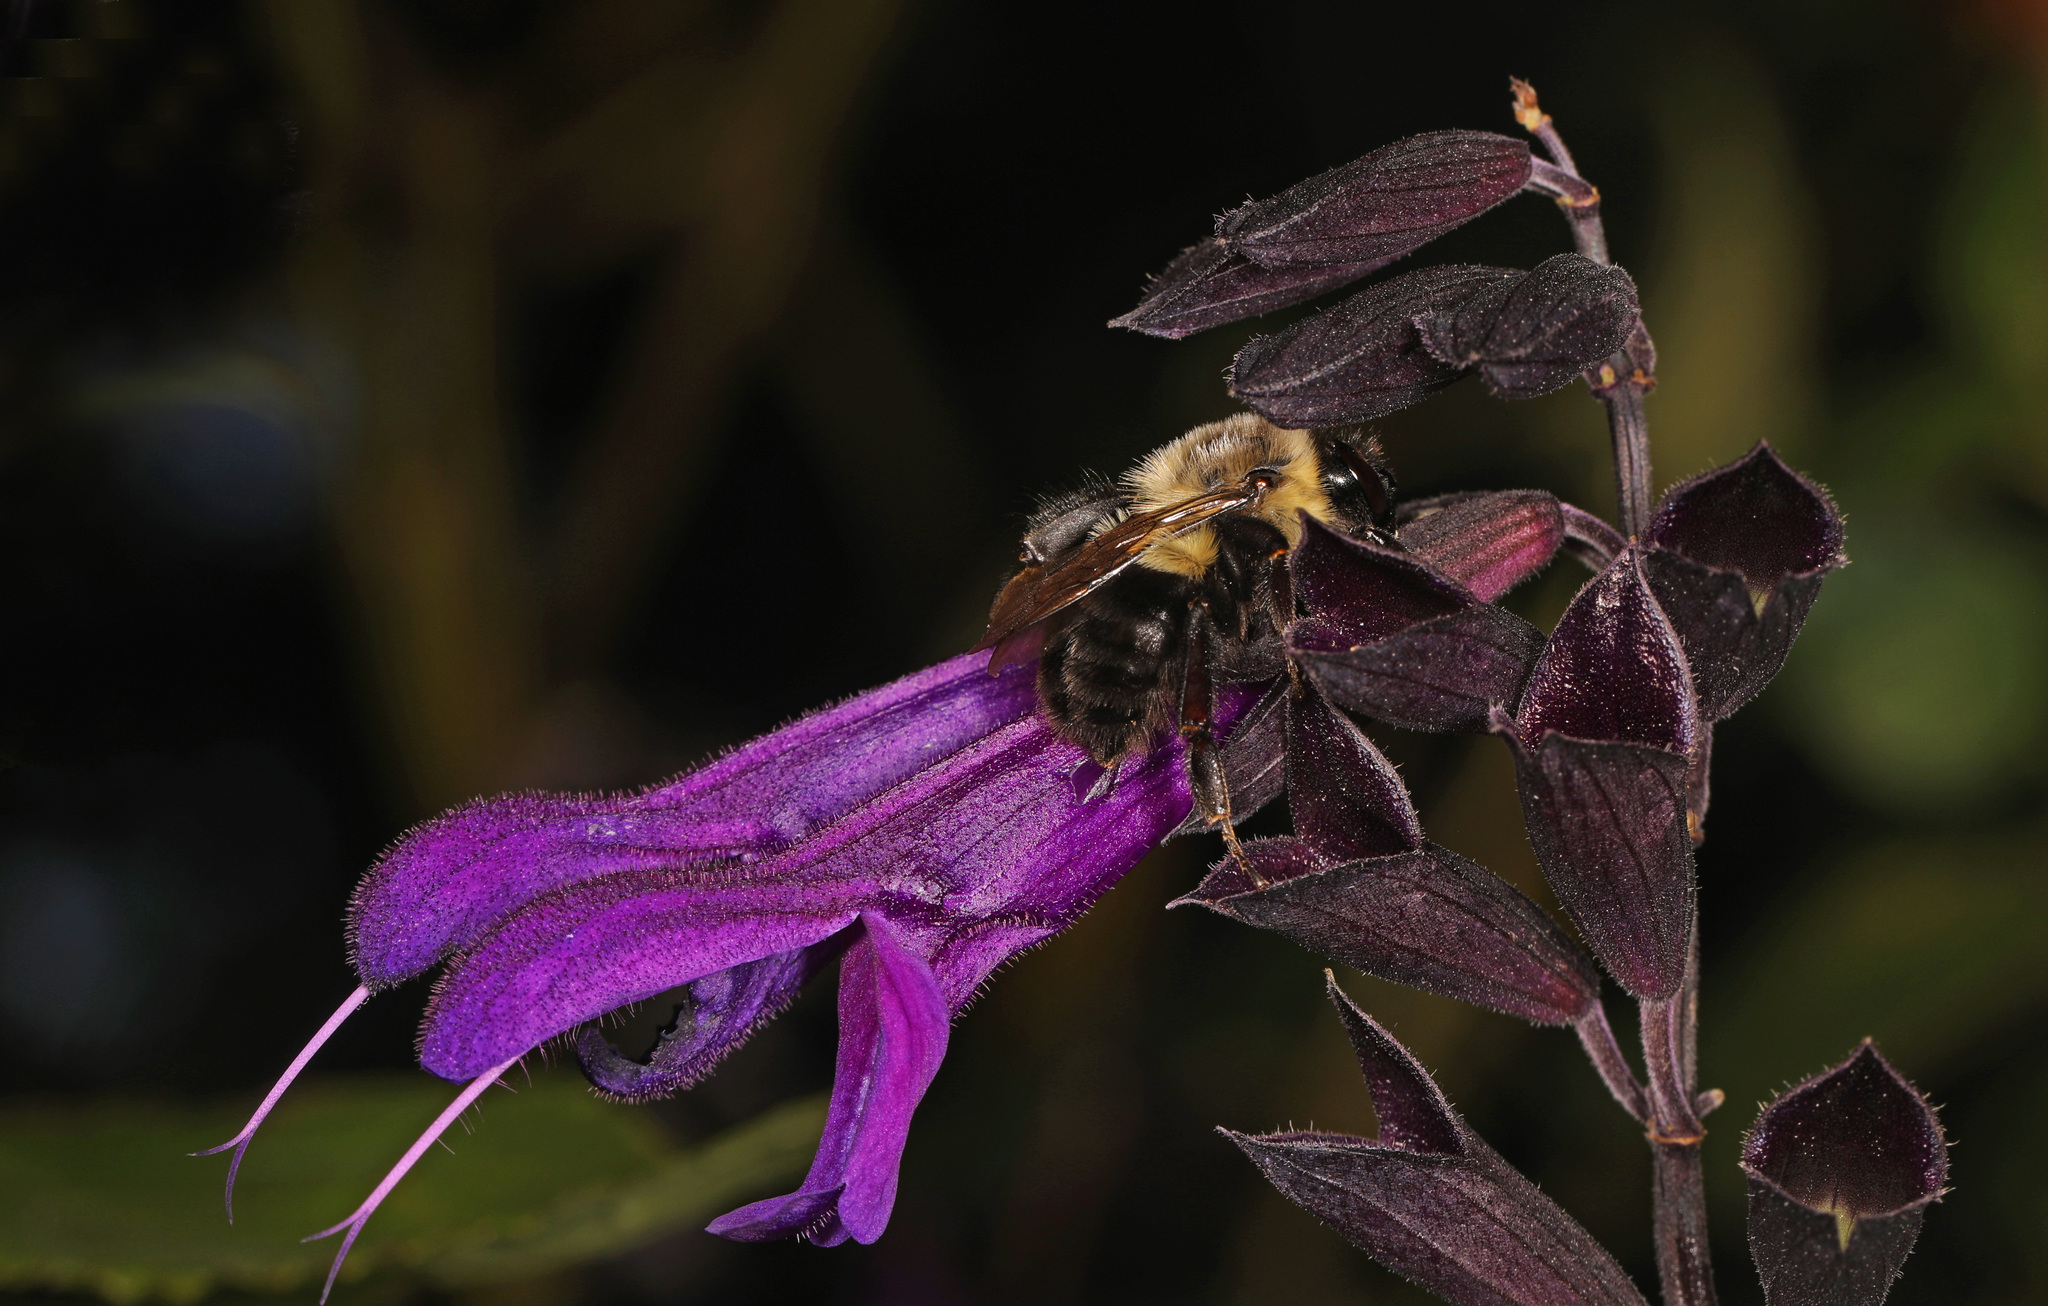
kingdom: Animalia
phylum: Arthropoda
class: Insecta
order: Hymenoptera
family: Apidae
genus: Bombus
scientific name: Bombus impatiens
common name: Common eastern bumble bee
